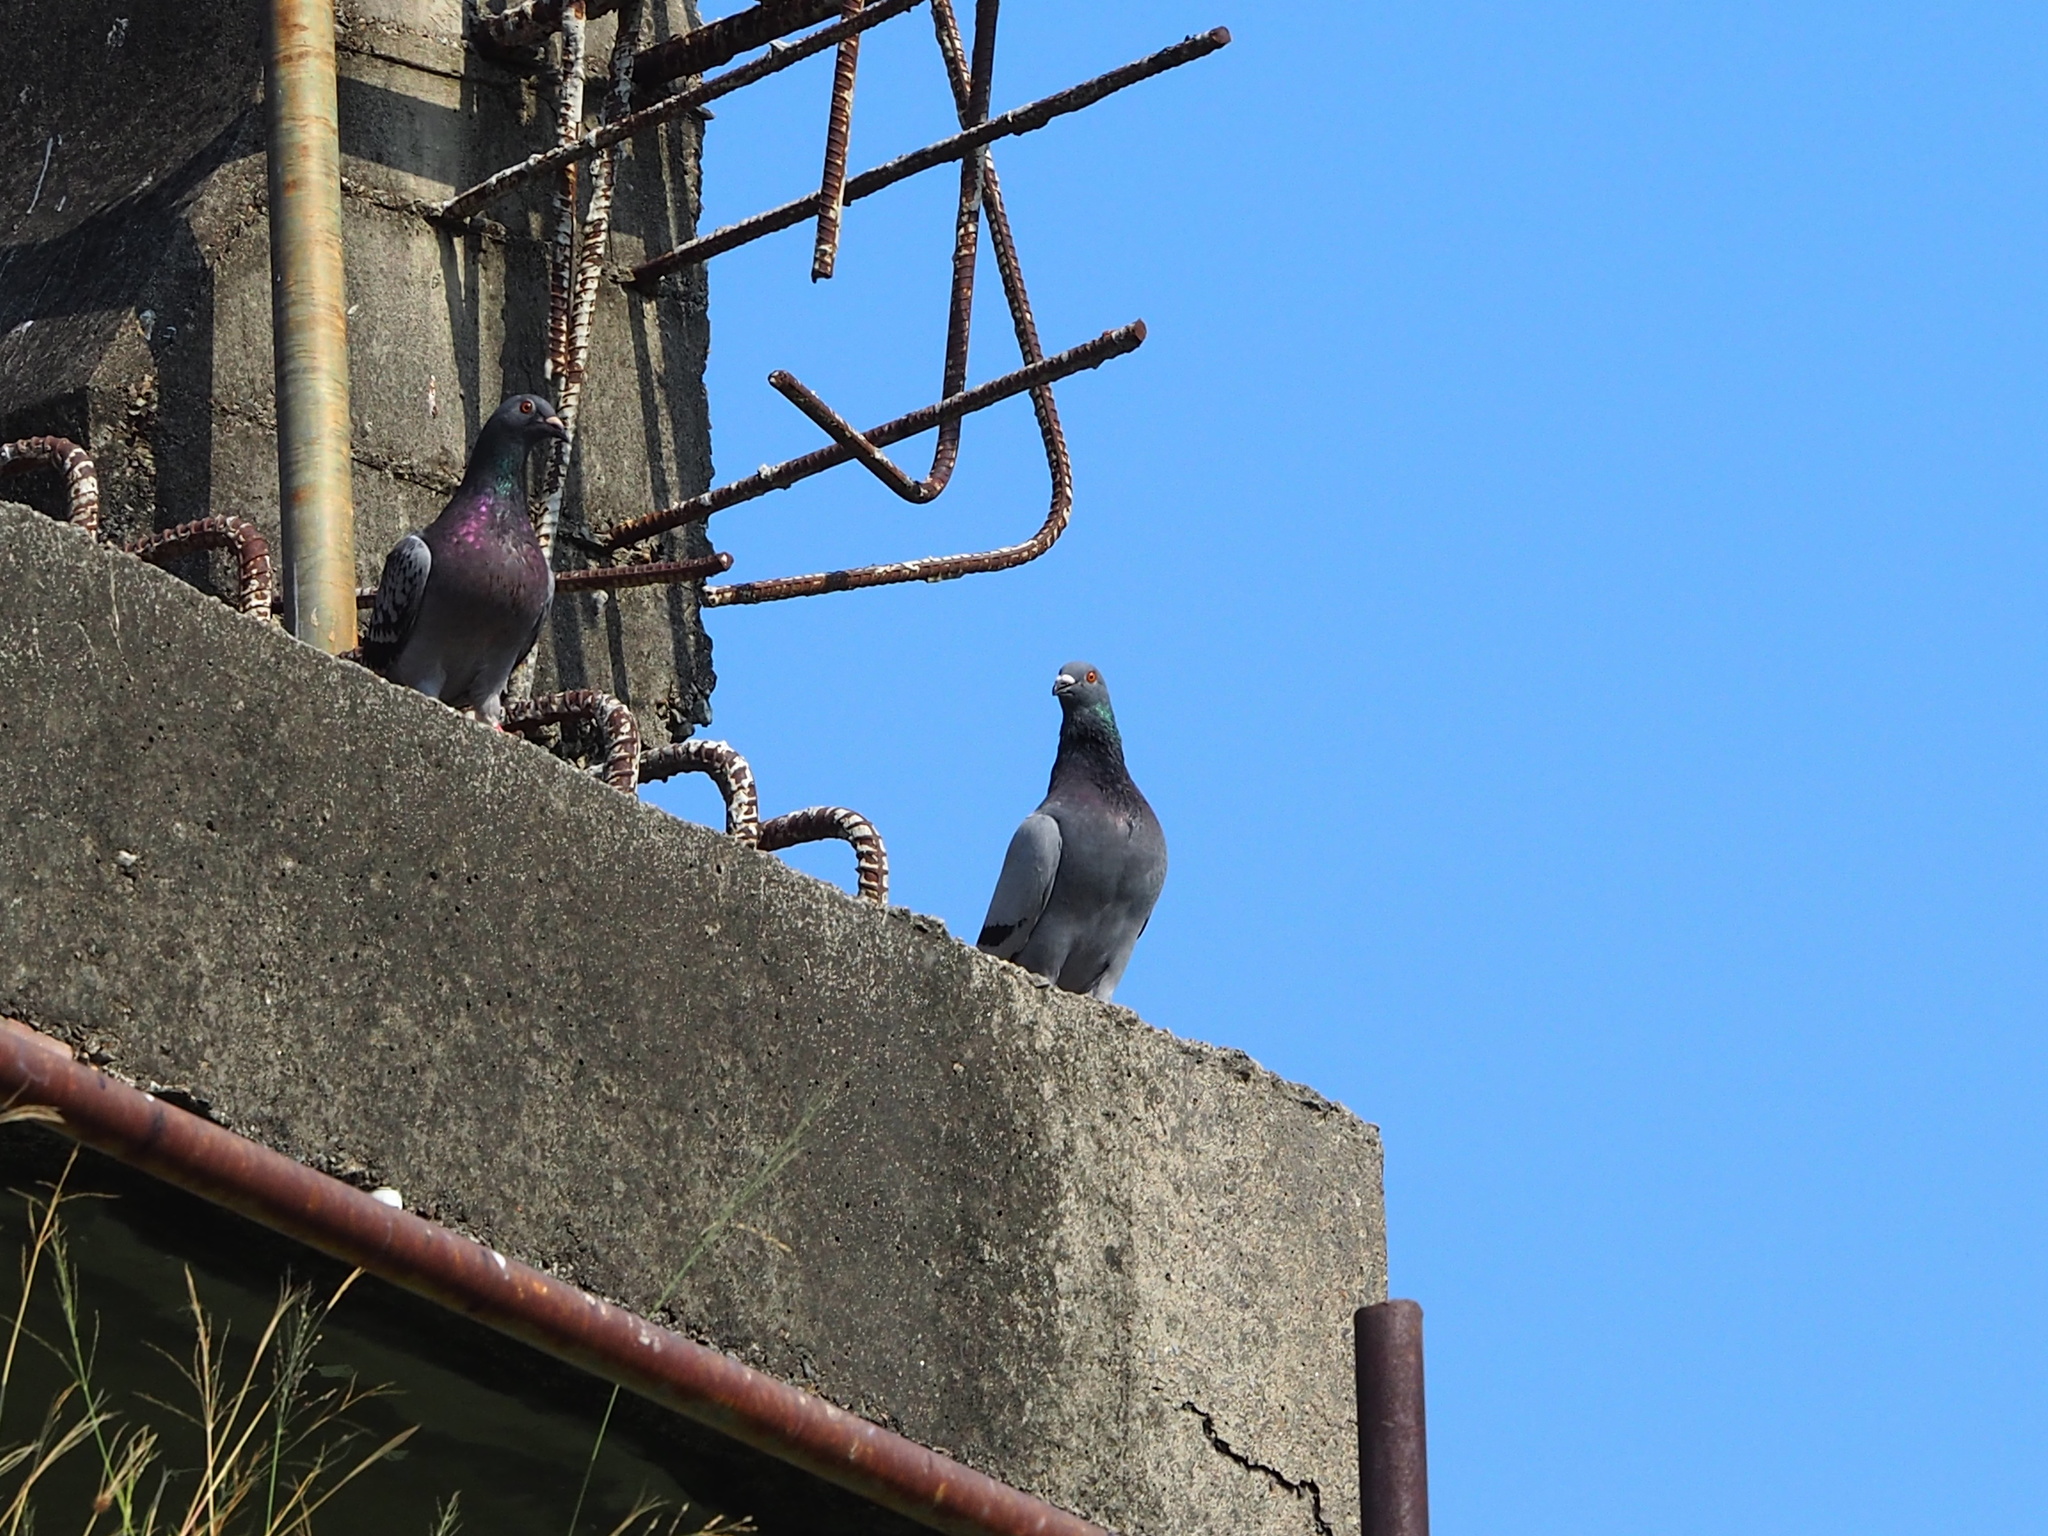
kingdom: Animalia
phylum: Chordata
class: Aves
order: Columbiformes
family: Columbidae
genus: Columba
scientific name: Columba livia
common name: Rock pigeon
